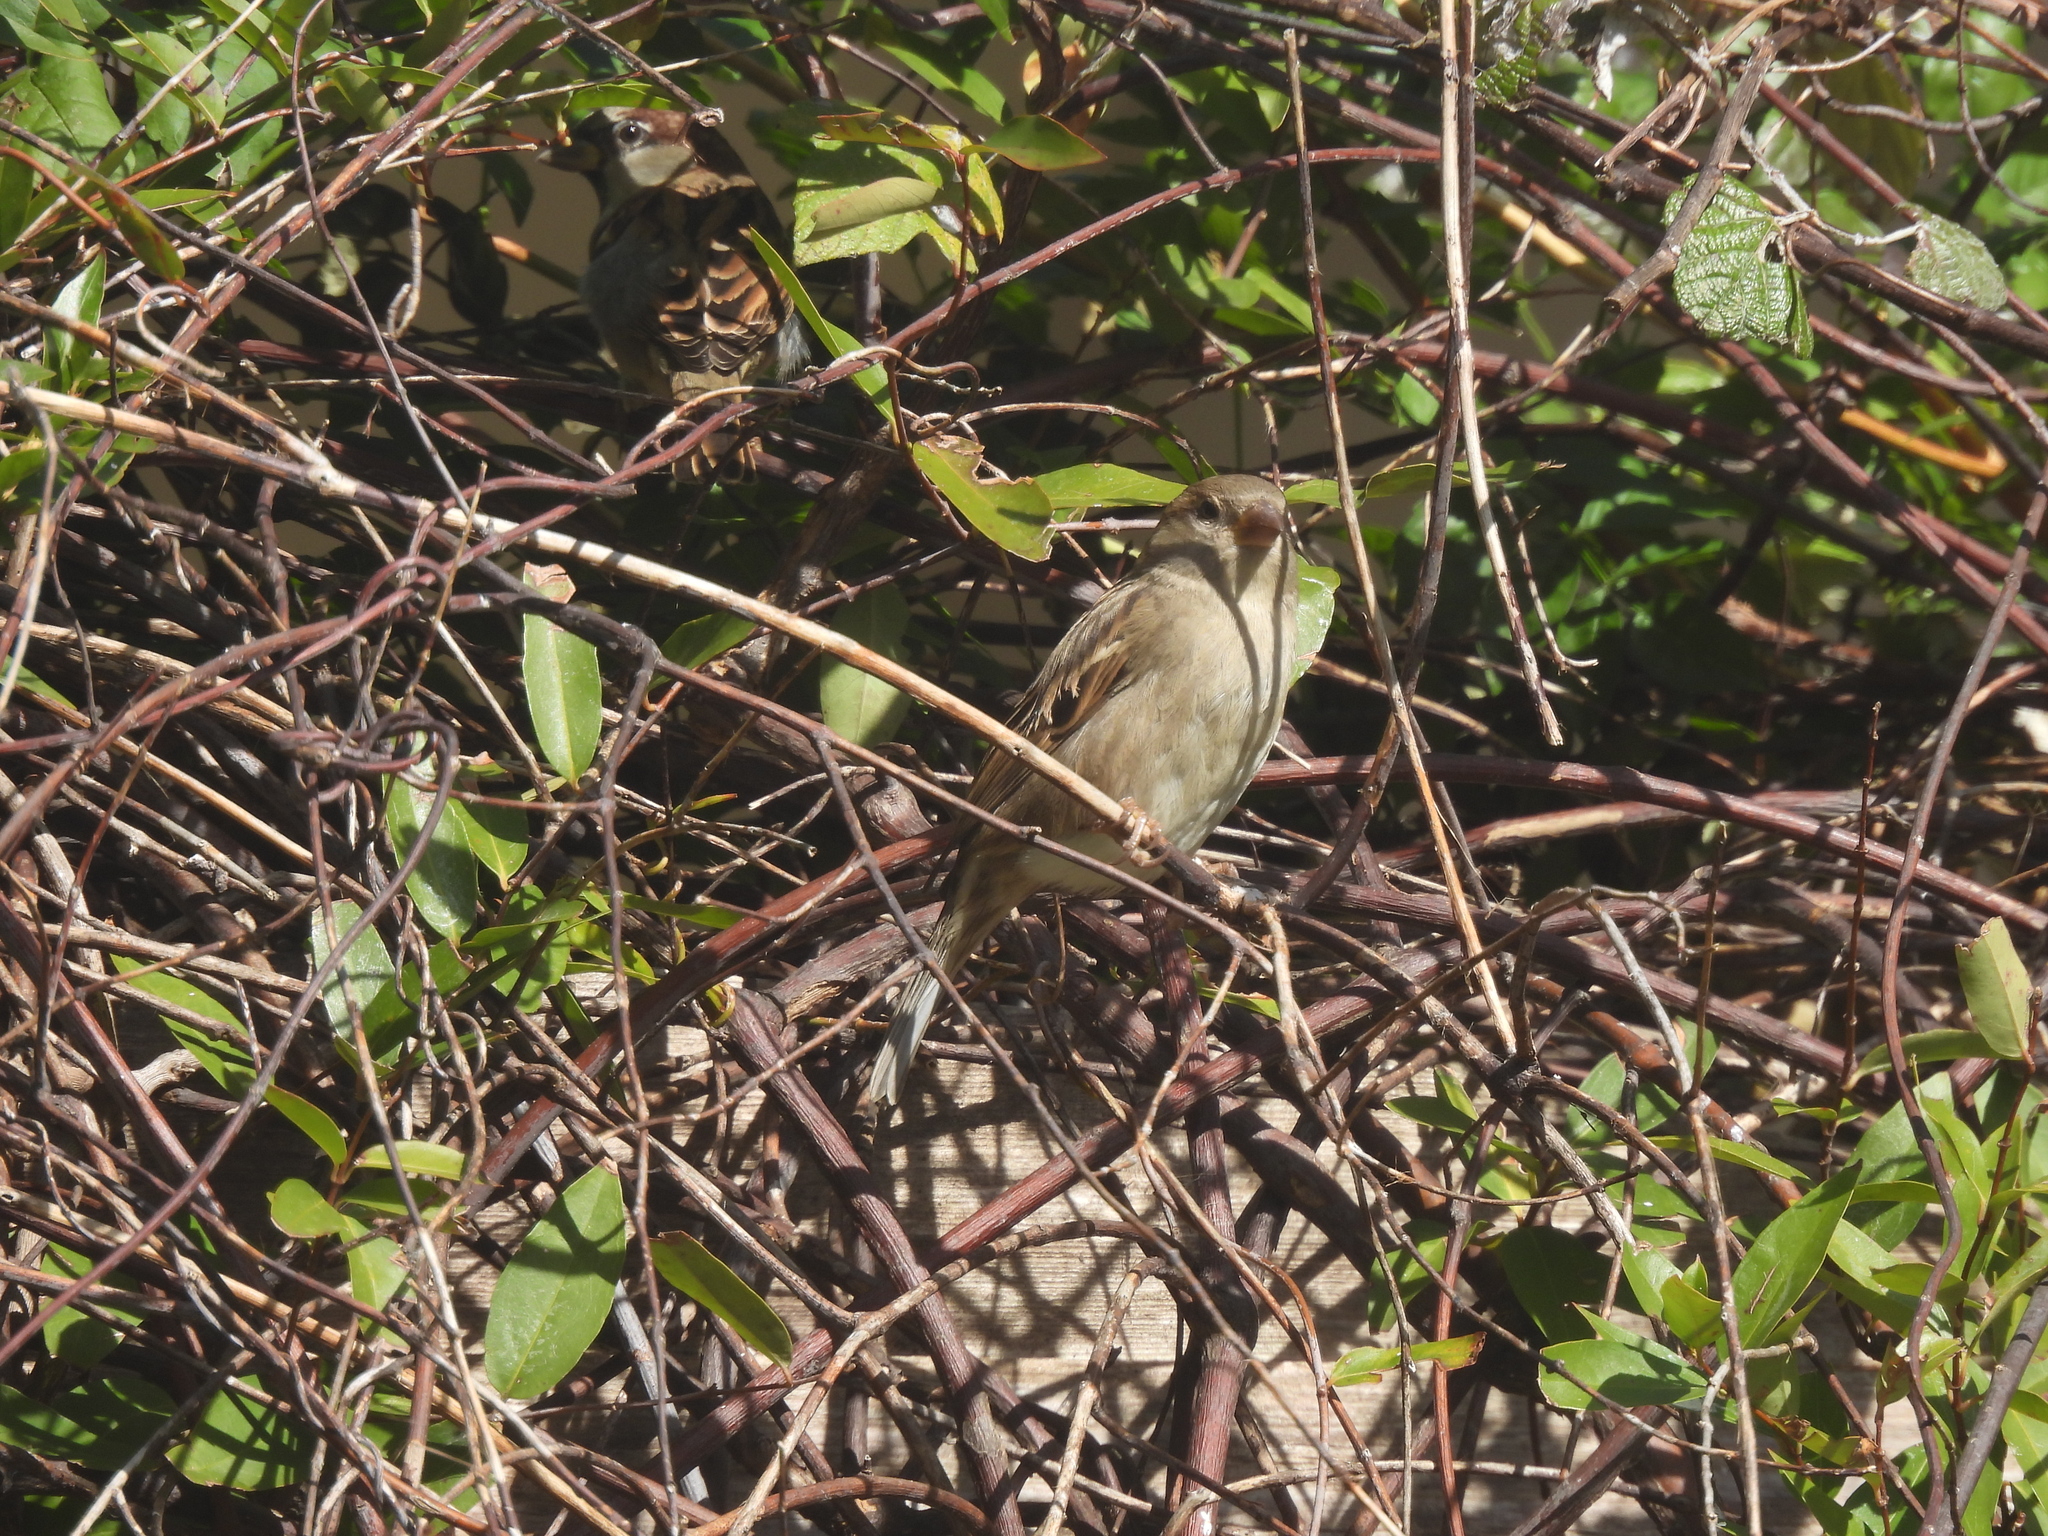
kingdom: Animalia
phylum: Chordata
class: Aves
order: Passeriformes
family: Passeridae
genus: Passer
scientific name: Passer domesticus
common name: House sparrow
